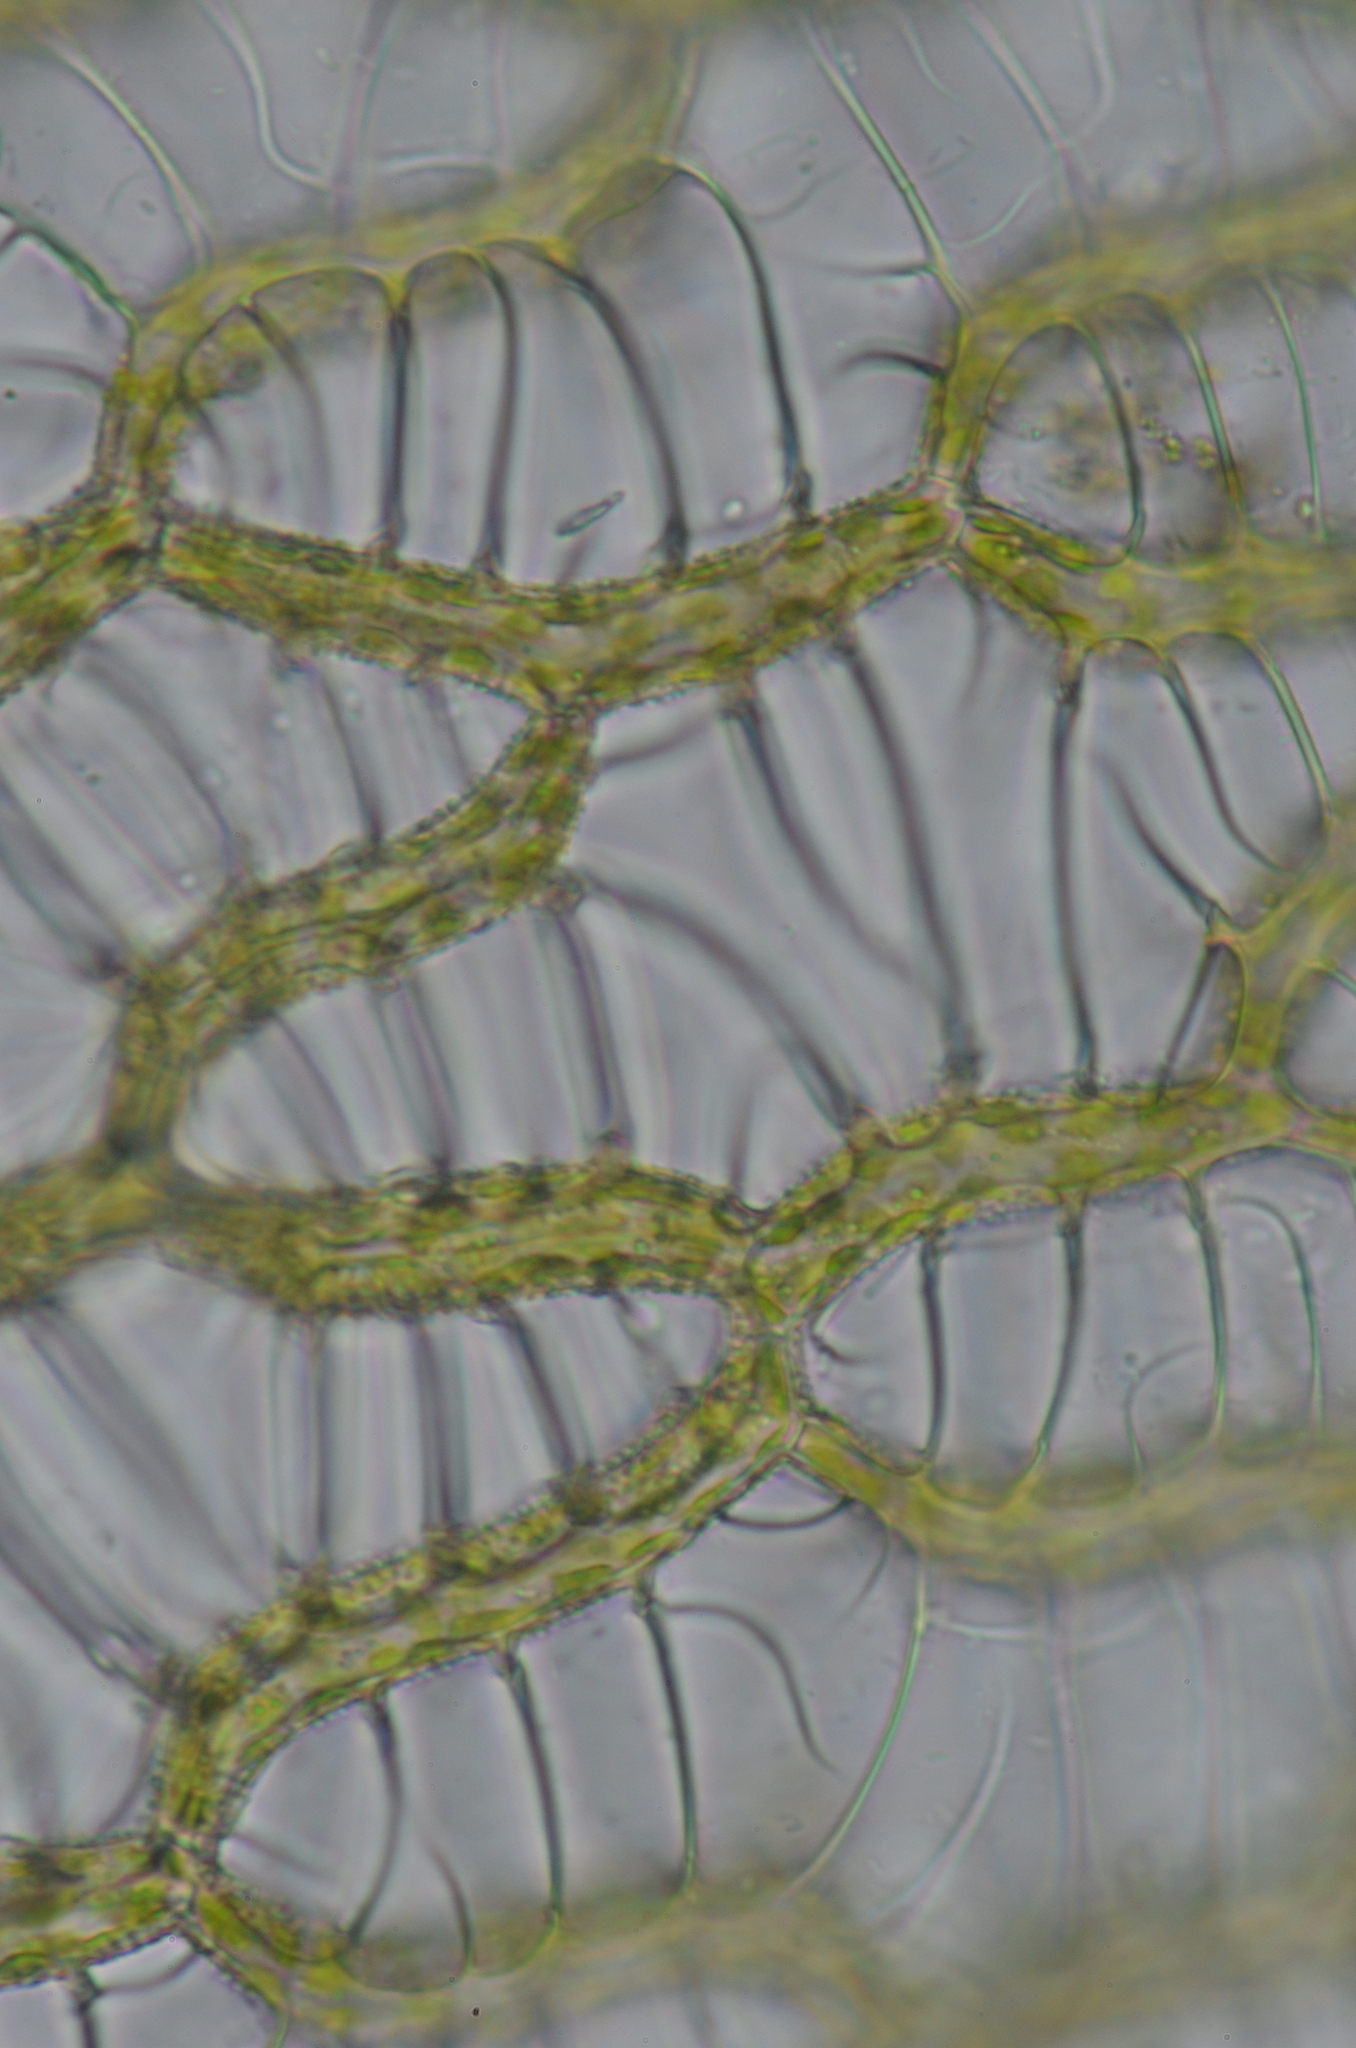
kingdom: Plantae
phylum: Bryophyta
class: Sphagnopsida
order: Sphagnales
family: Sphagnaceae
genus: Sphagnum
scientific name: Sphagnum papillosum
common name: Papillose peat moss
